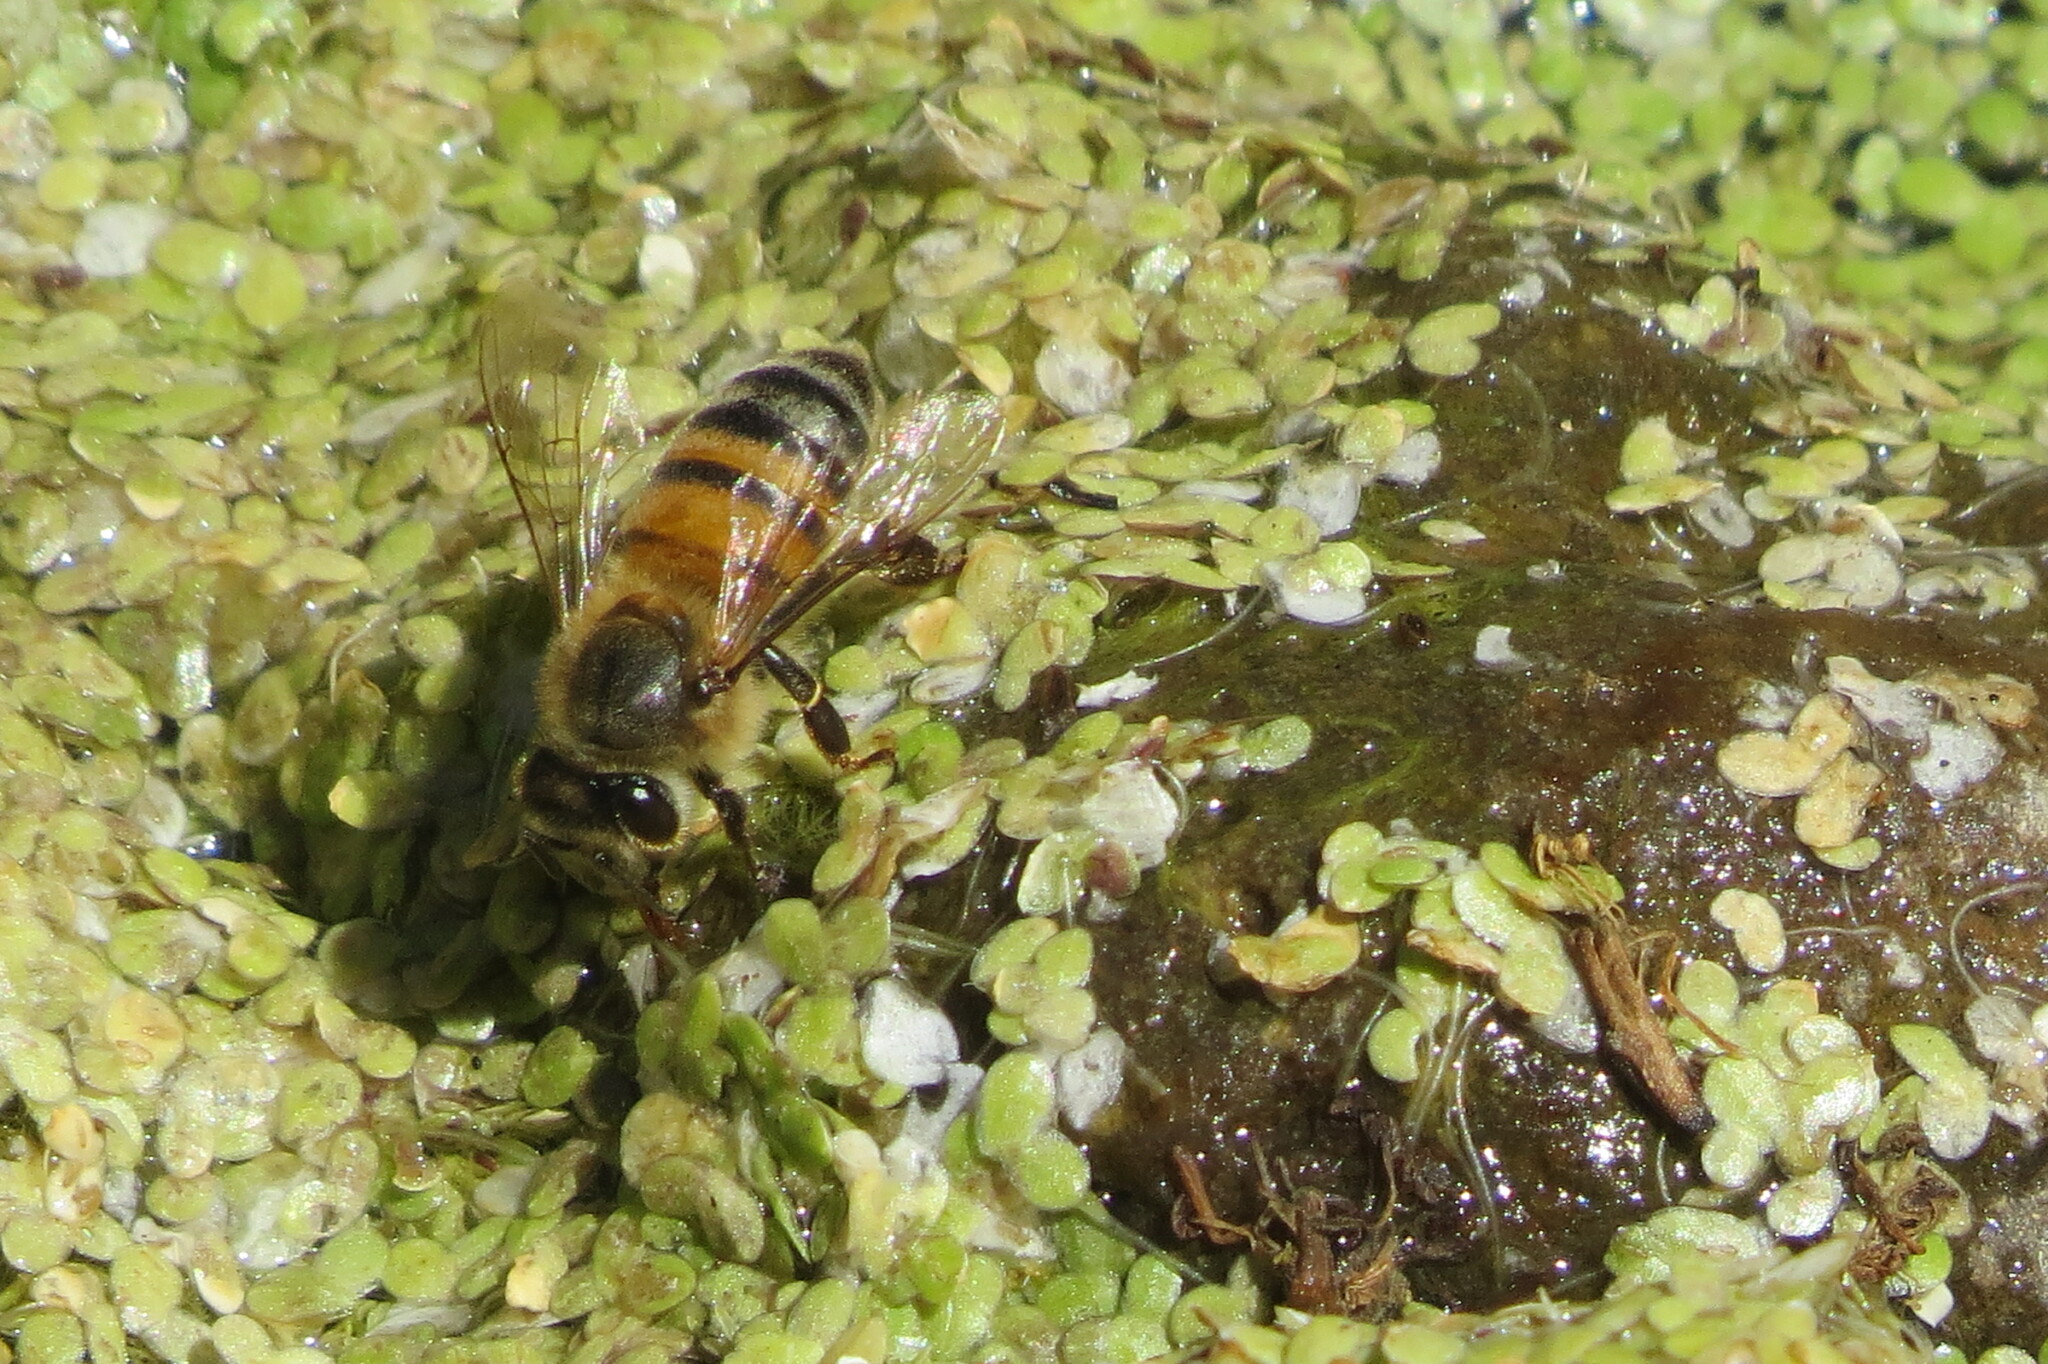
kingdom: Animalia
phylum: Arthropoda
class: Insecta
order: Hymenoptera
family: Apidae
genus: Apis
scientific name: Apis mellifera
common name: Honey bee
